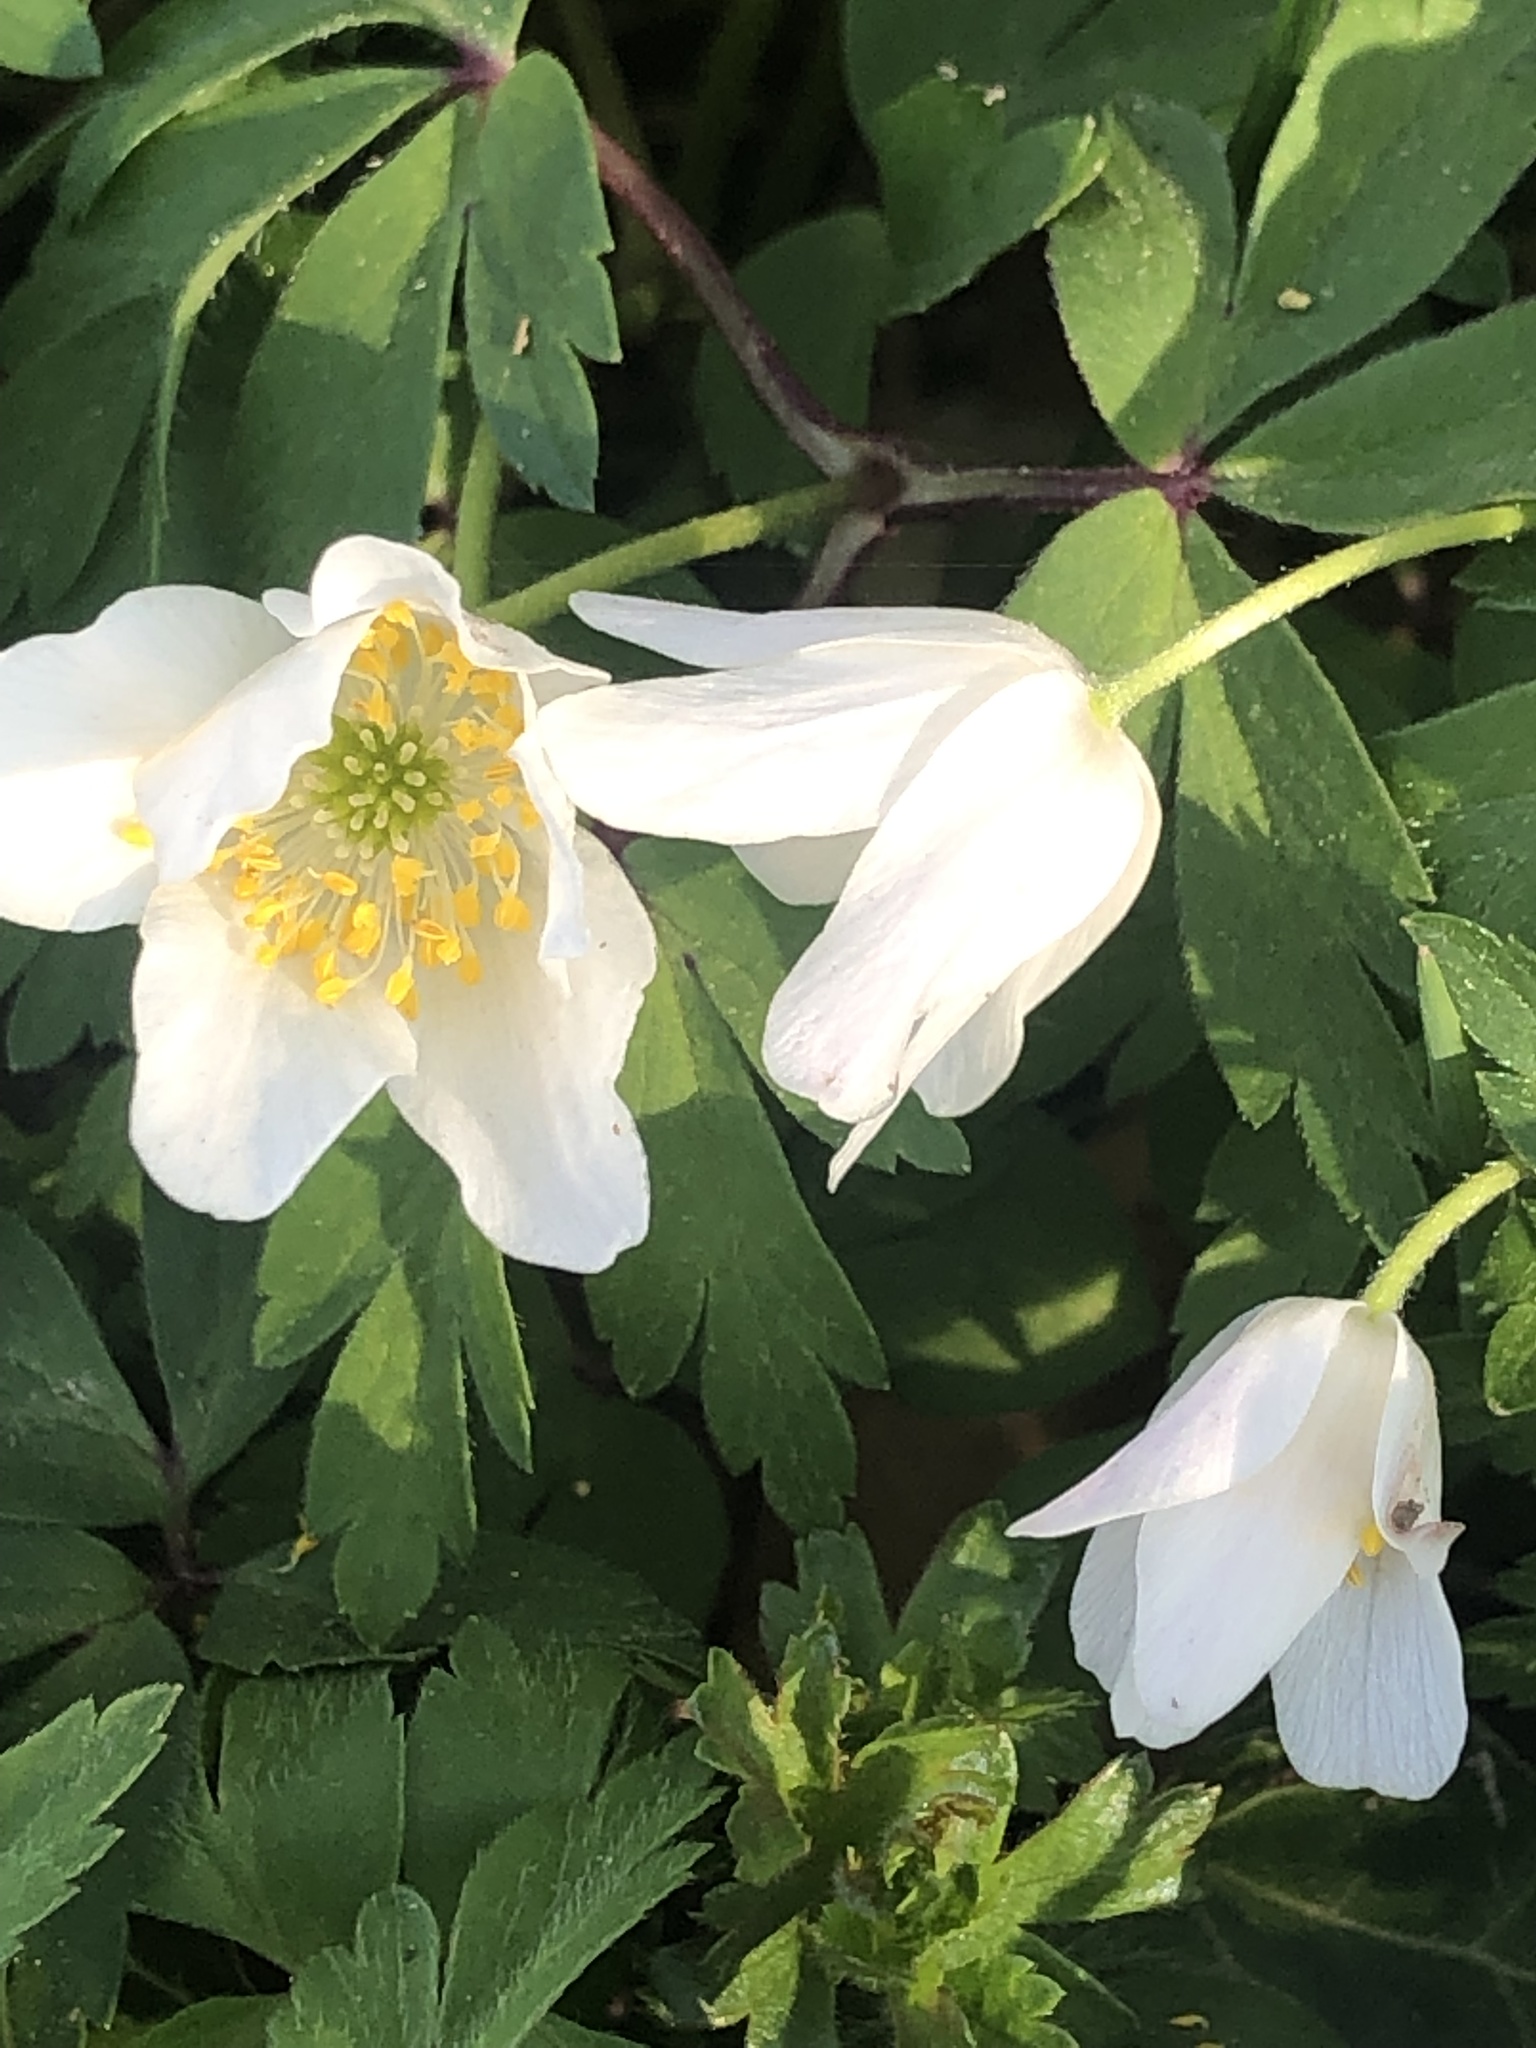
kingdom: Plantae
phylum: Tracheophyta
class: Magnoliopsida
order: Ranunculales
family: Ranunculaceae
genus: Anemone
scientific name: Anemone nemorosa
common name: Wood anemone
